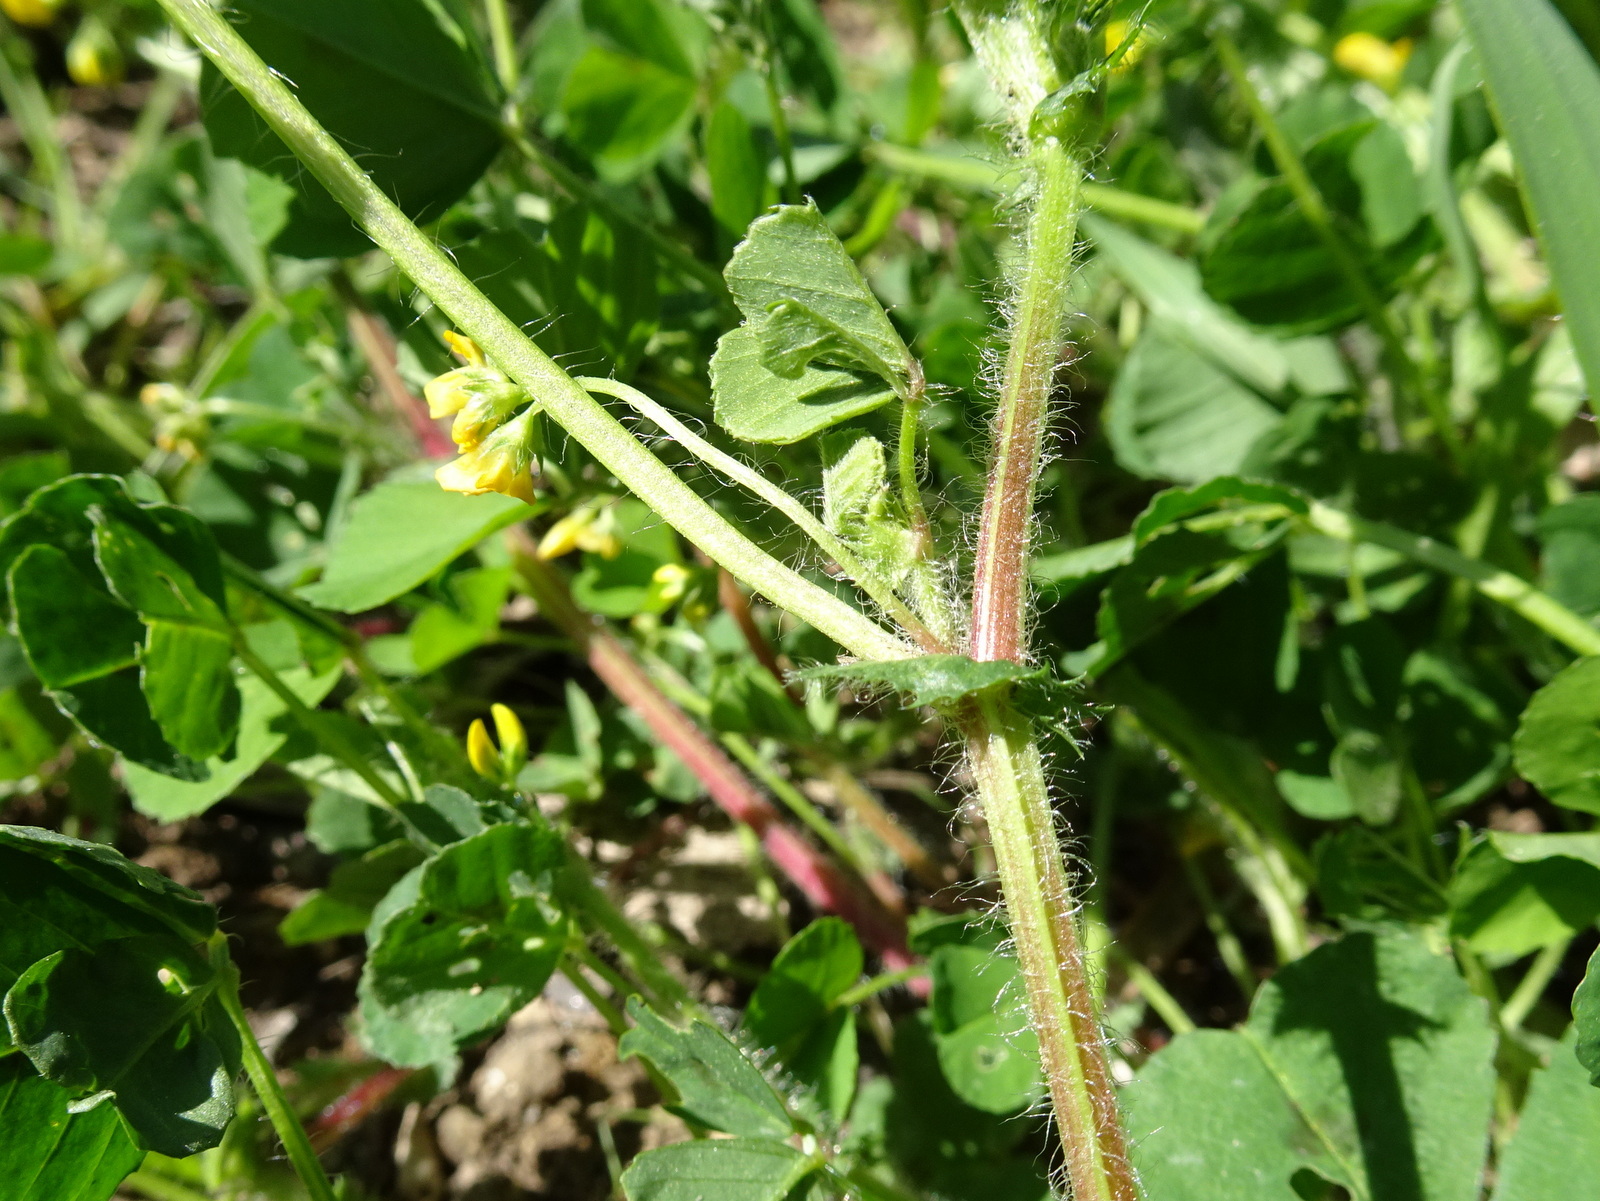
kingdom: Plantae
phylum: Tracheophyta
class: Magnoliopsida
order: Fabales
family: Fabaceae
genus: Medicago
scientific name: Medicago arabica
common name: Spotted medick
